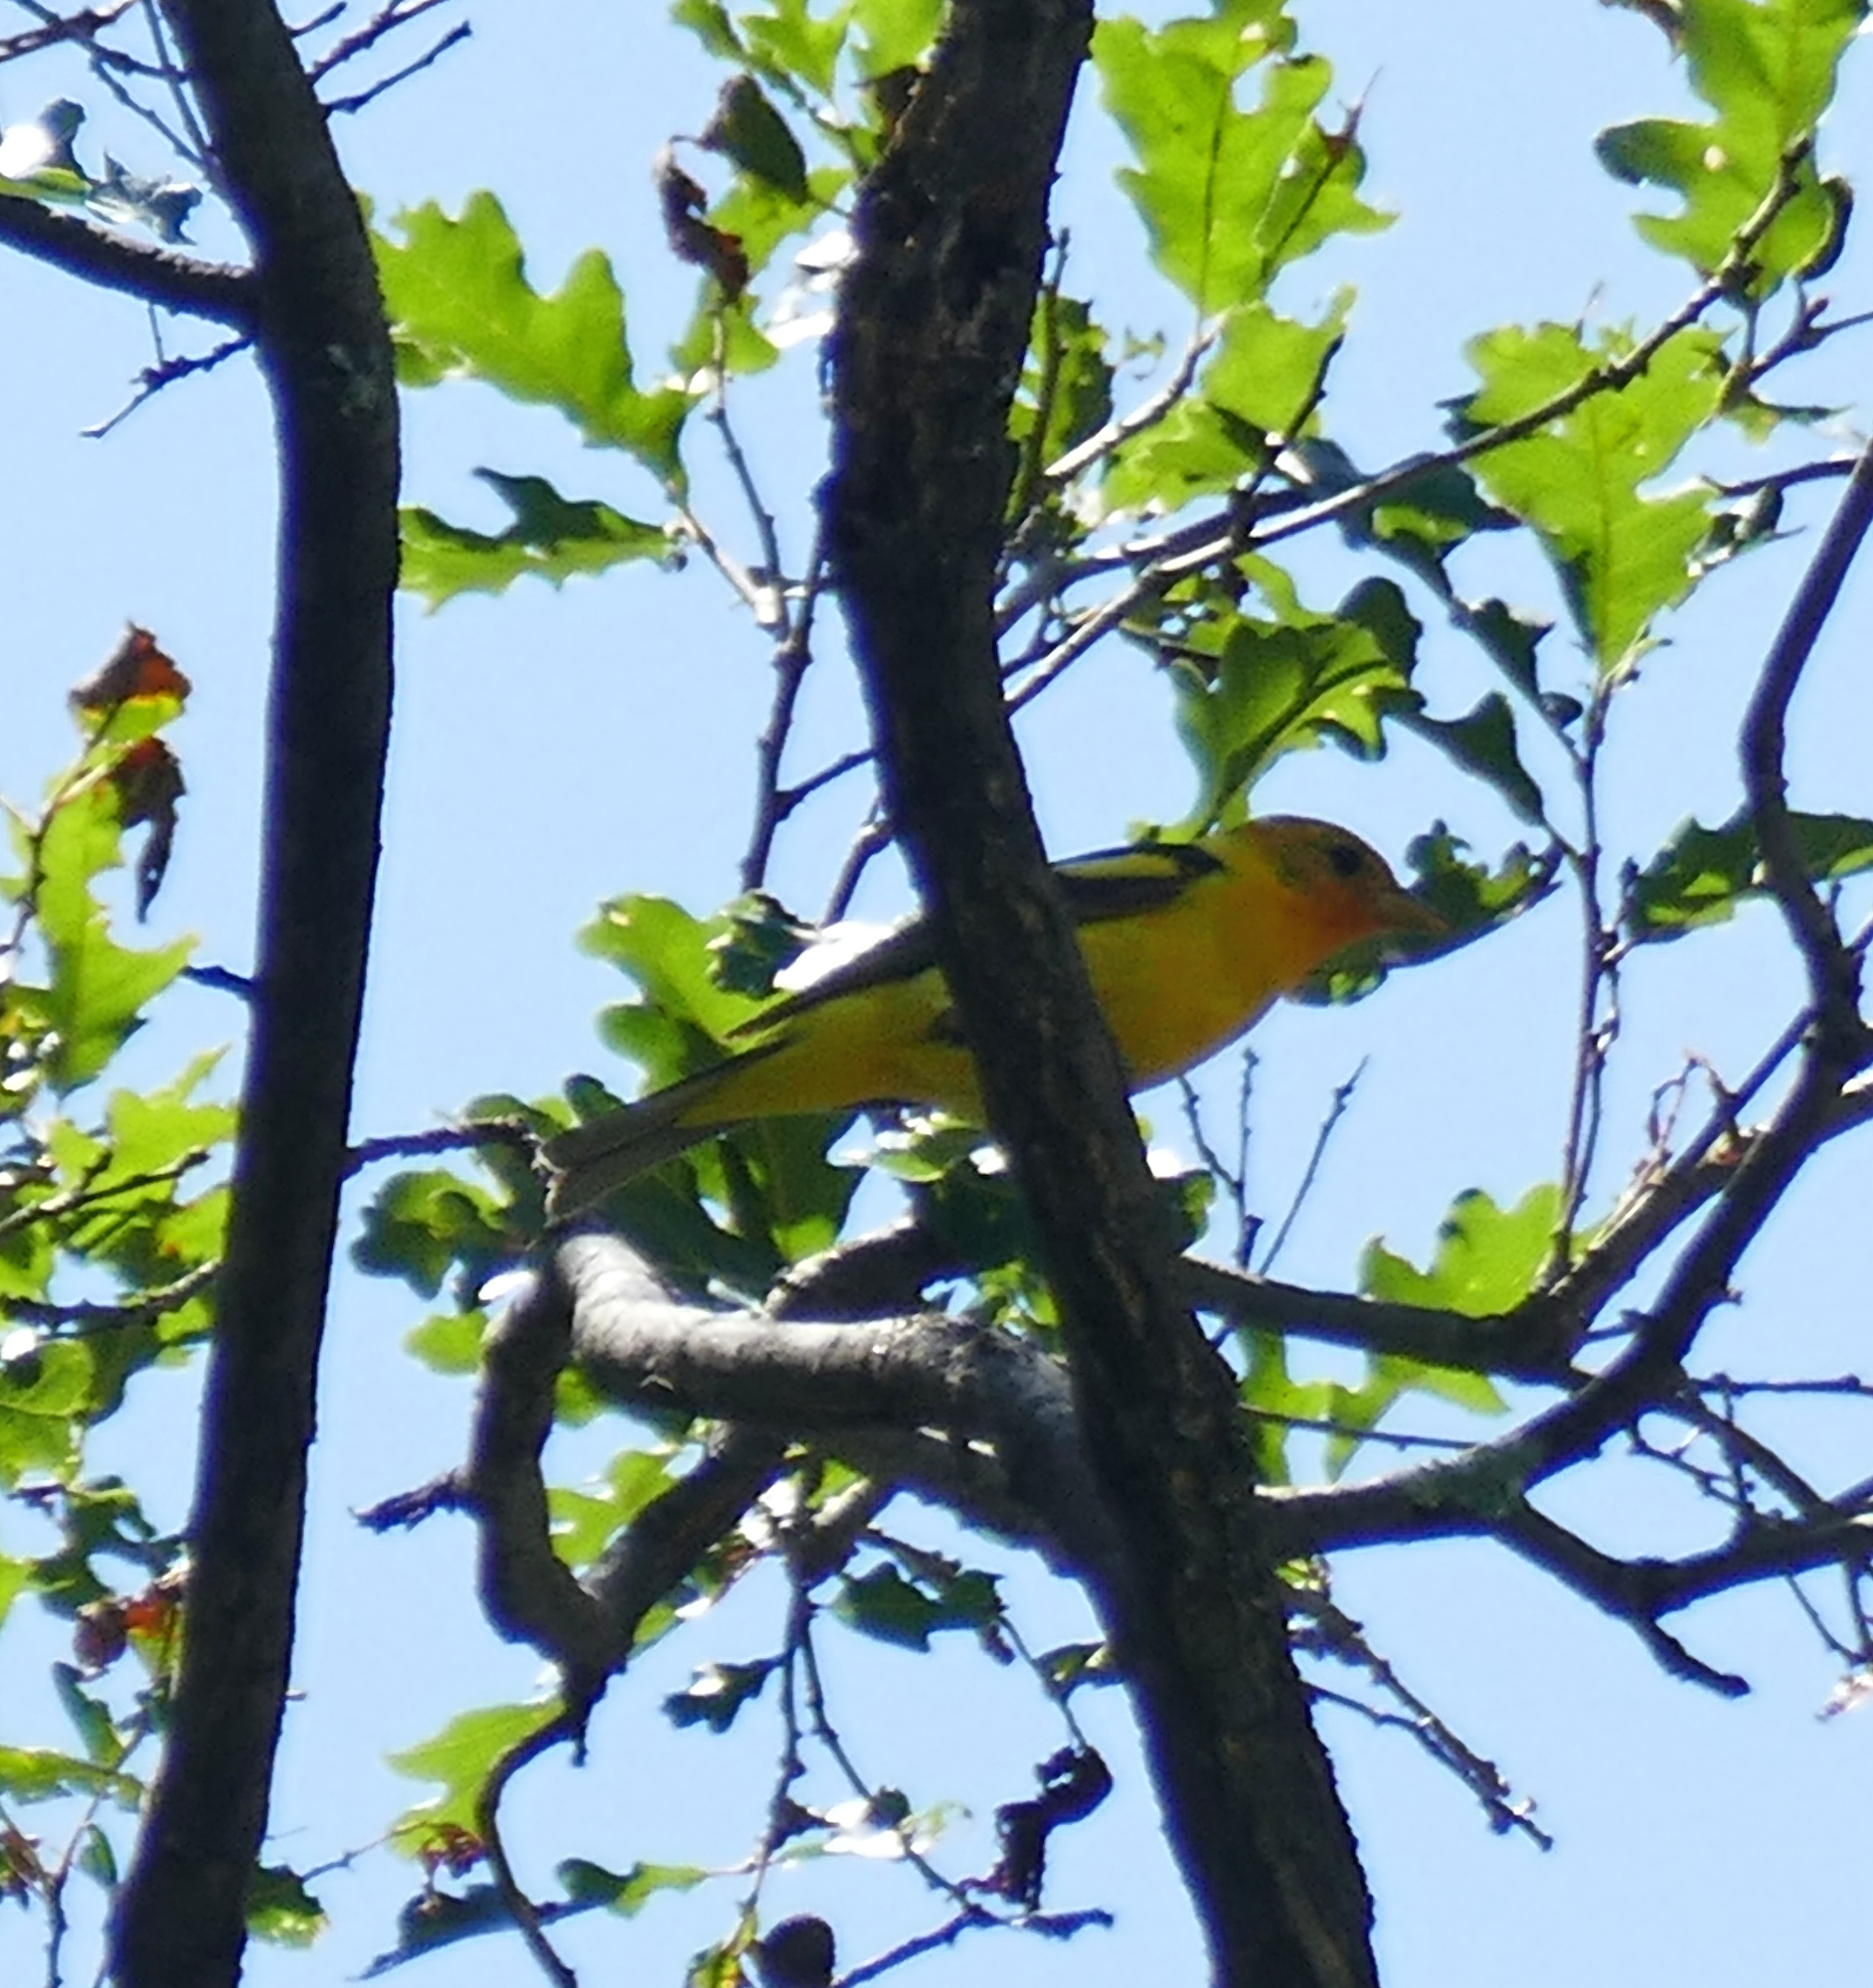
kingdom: Animalia
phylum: Chordata
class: Aves
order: Passeriformes
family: Cardinalidae
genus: Piranga
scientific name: Piranga ludoviciana
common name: Western tanager
